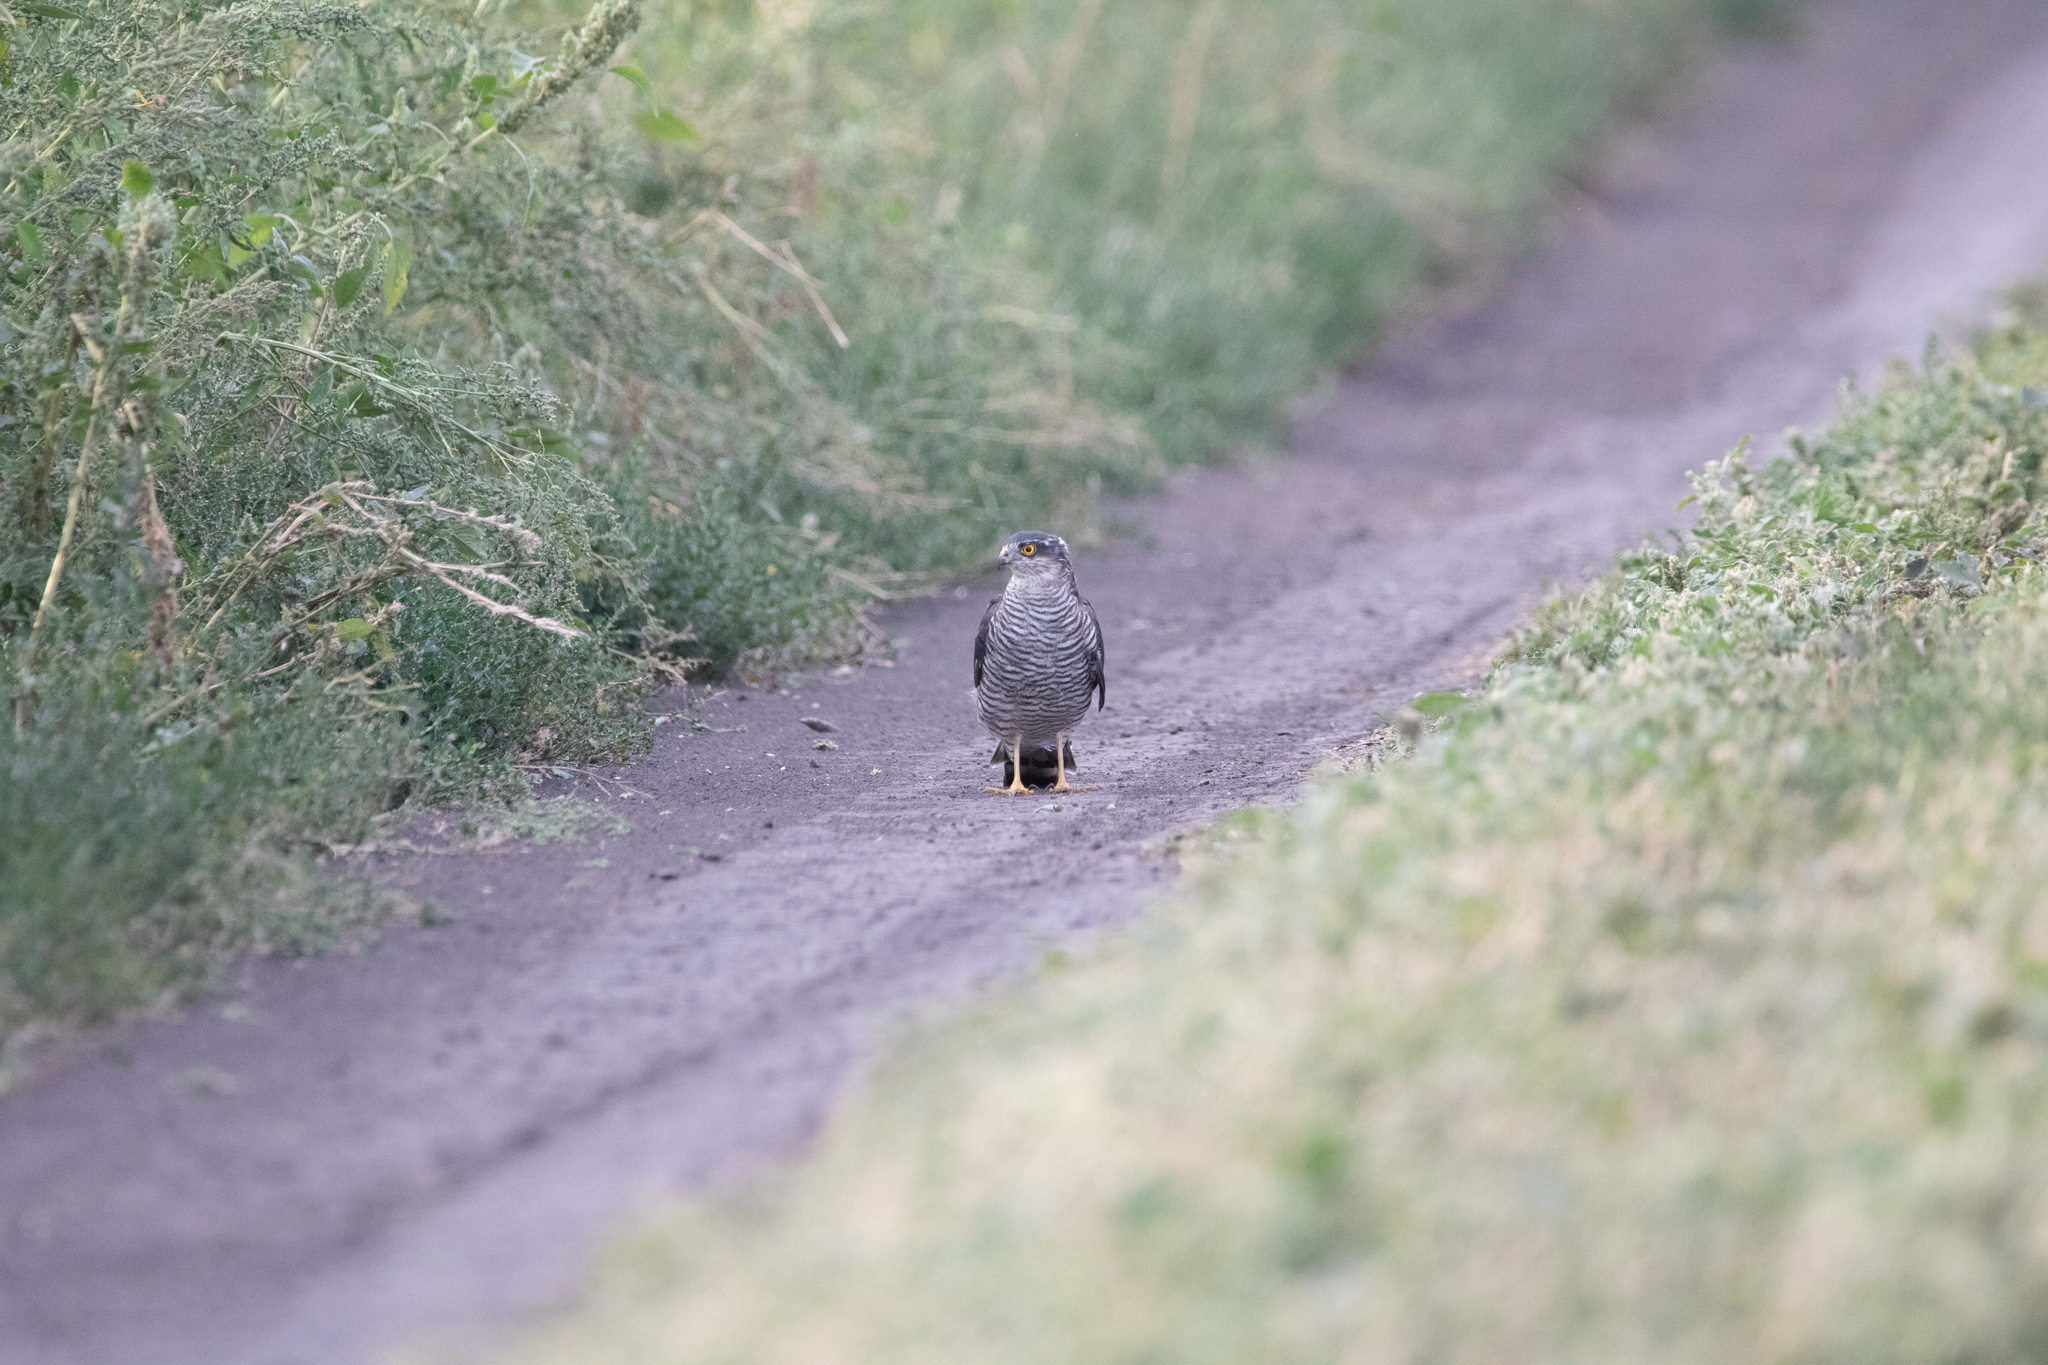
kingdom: Animalia
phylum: Chordata
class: Aves
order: Accipitriformes
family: Accipitridae
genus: Accipiter
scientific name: Accipiter nisus
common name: Eurasian sparrowhawk
